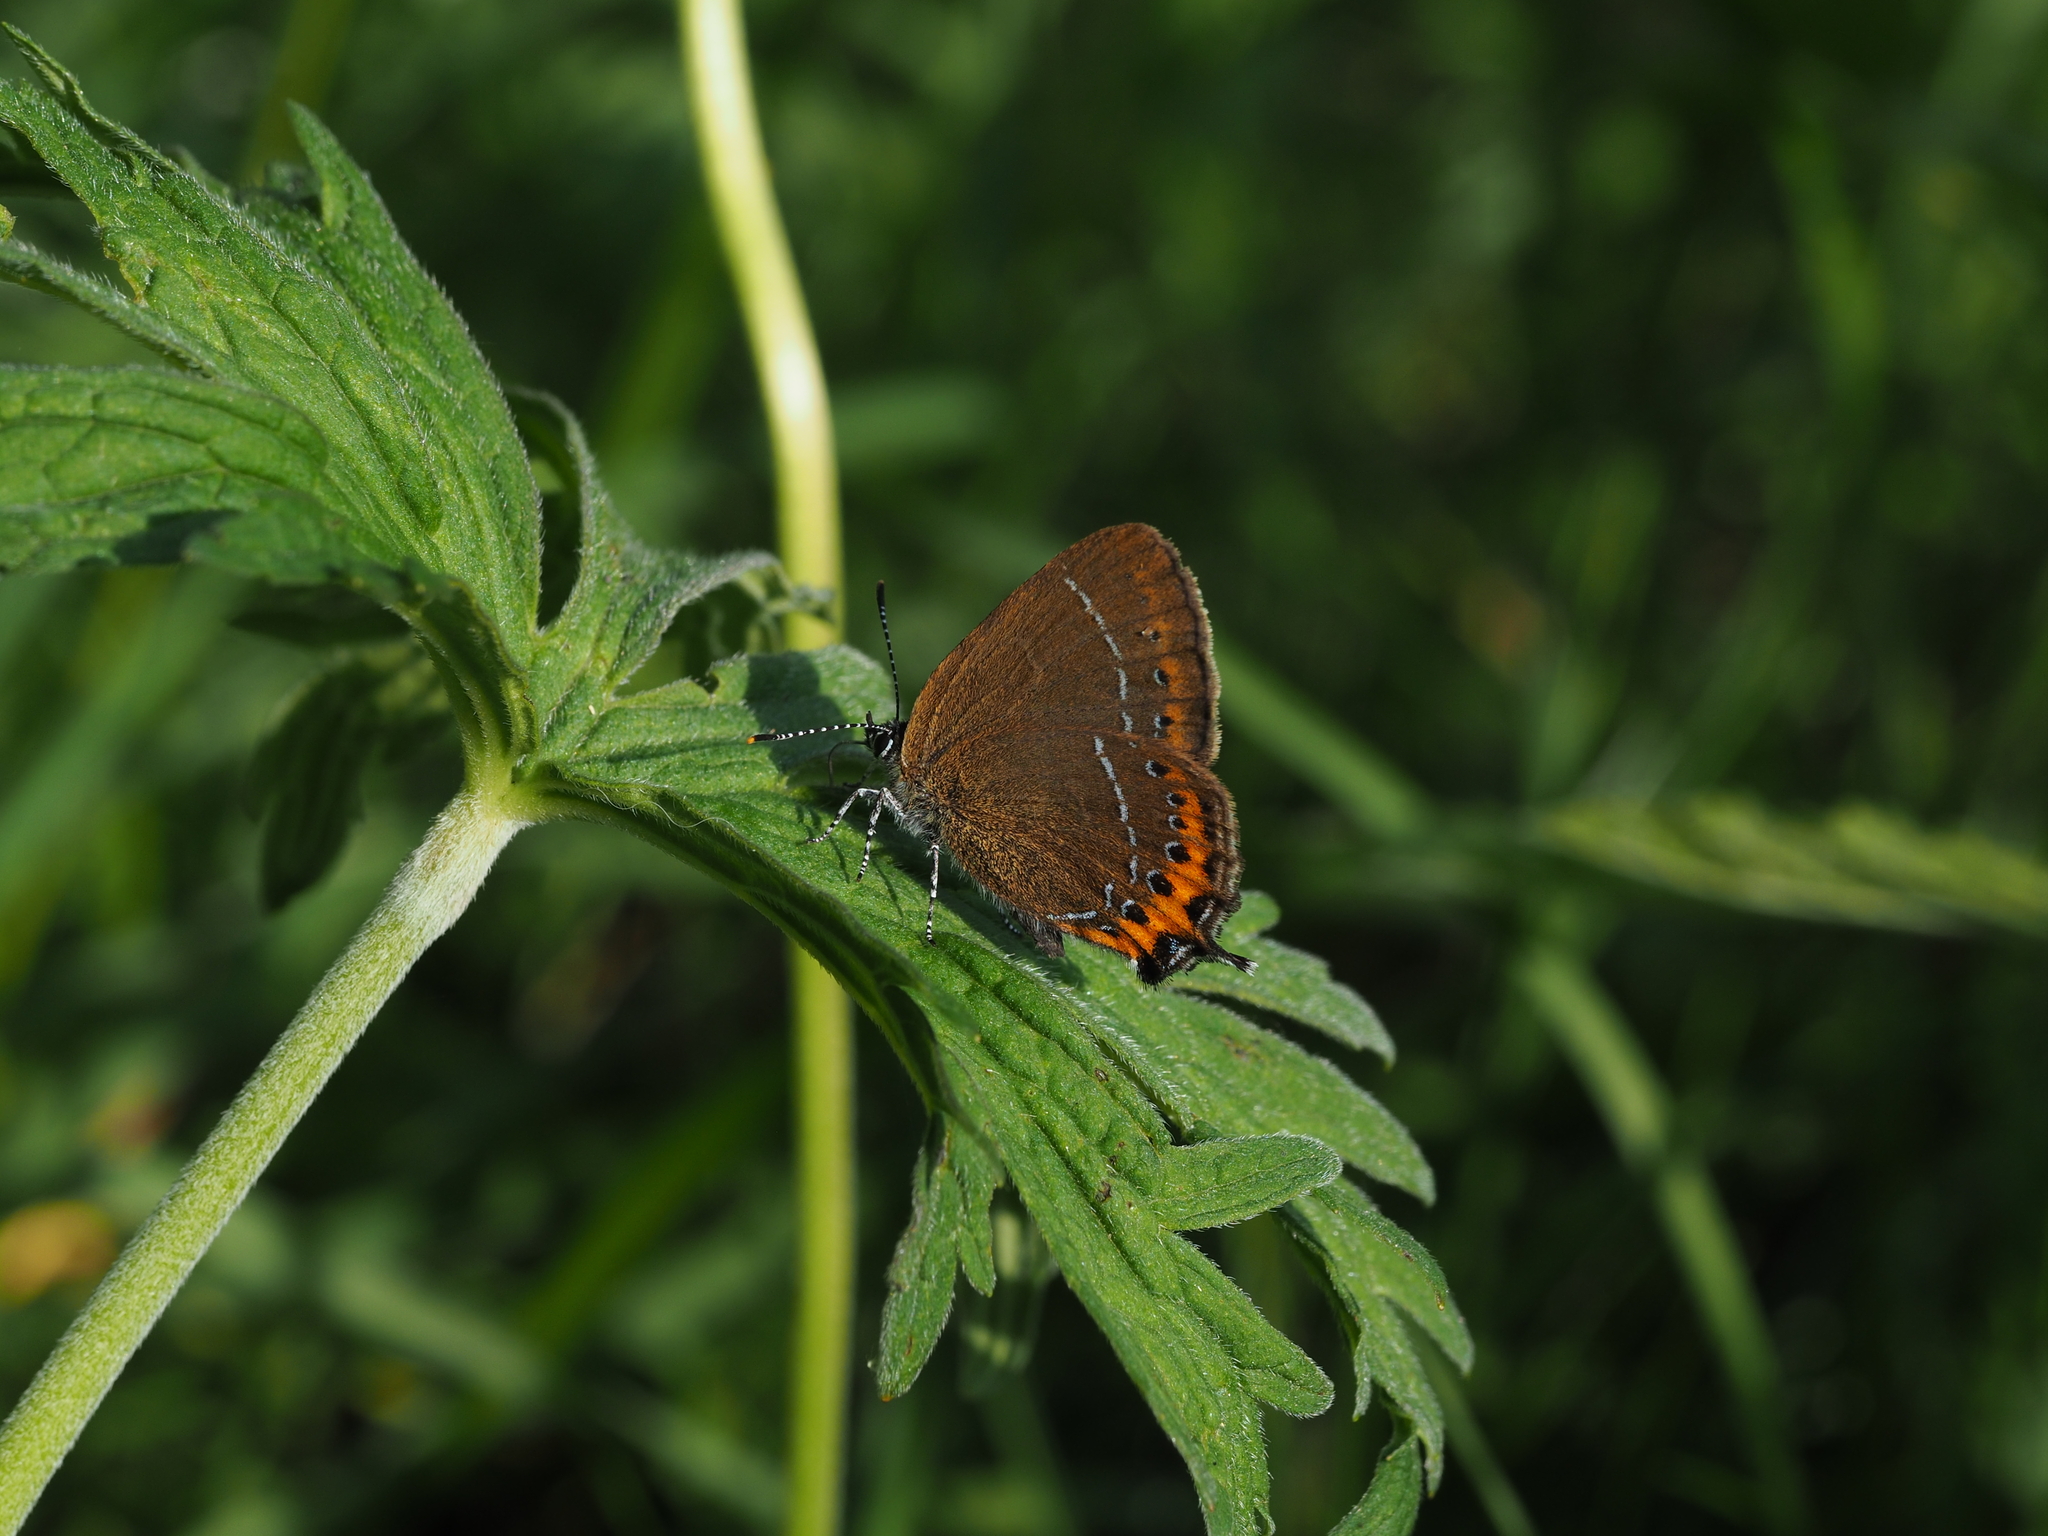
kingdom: Animalia
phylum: Arthropoda
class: Insecta
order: Lepidoptera
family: Lycaenidae
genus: Fixsenia
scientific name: Fixsenia pruni
